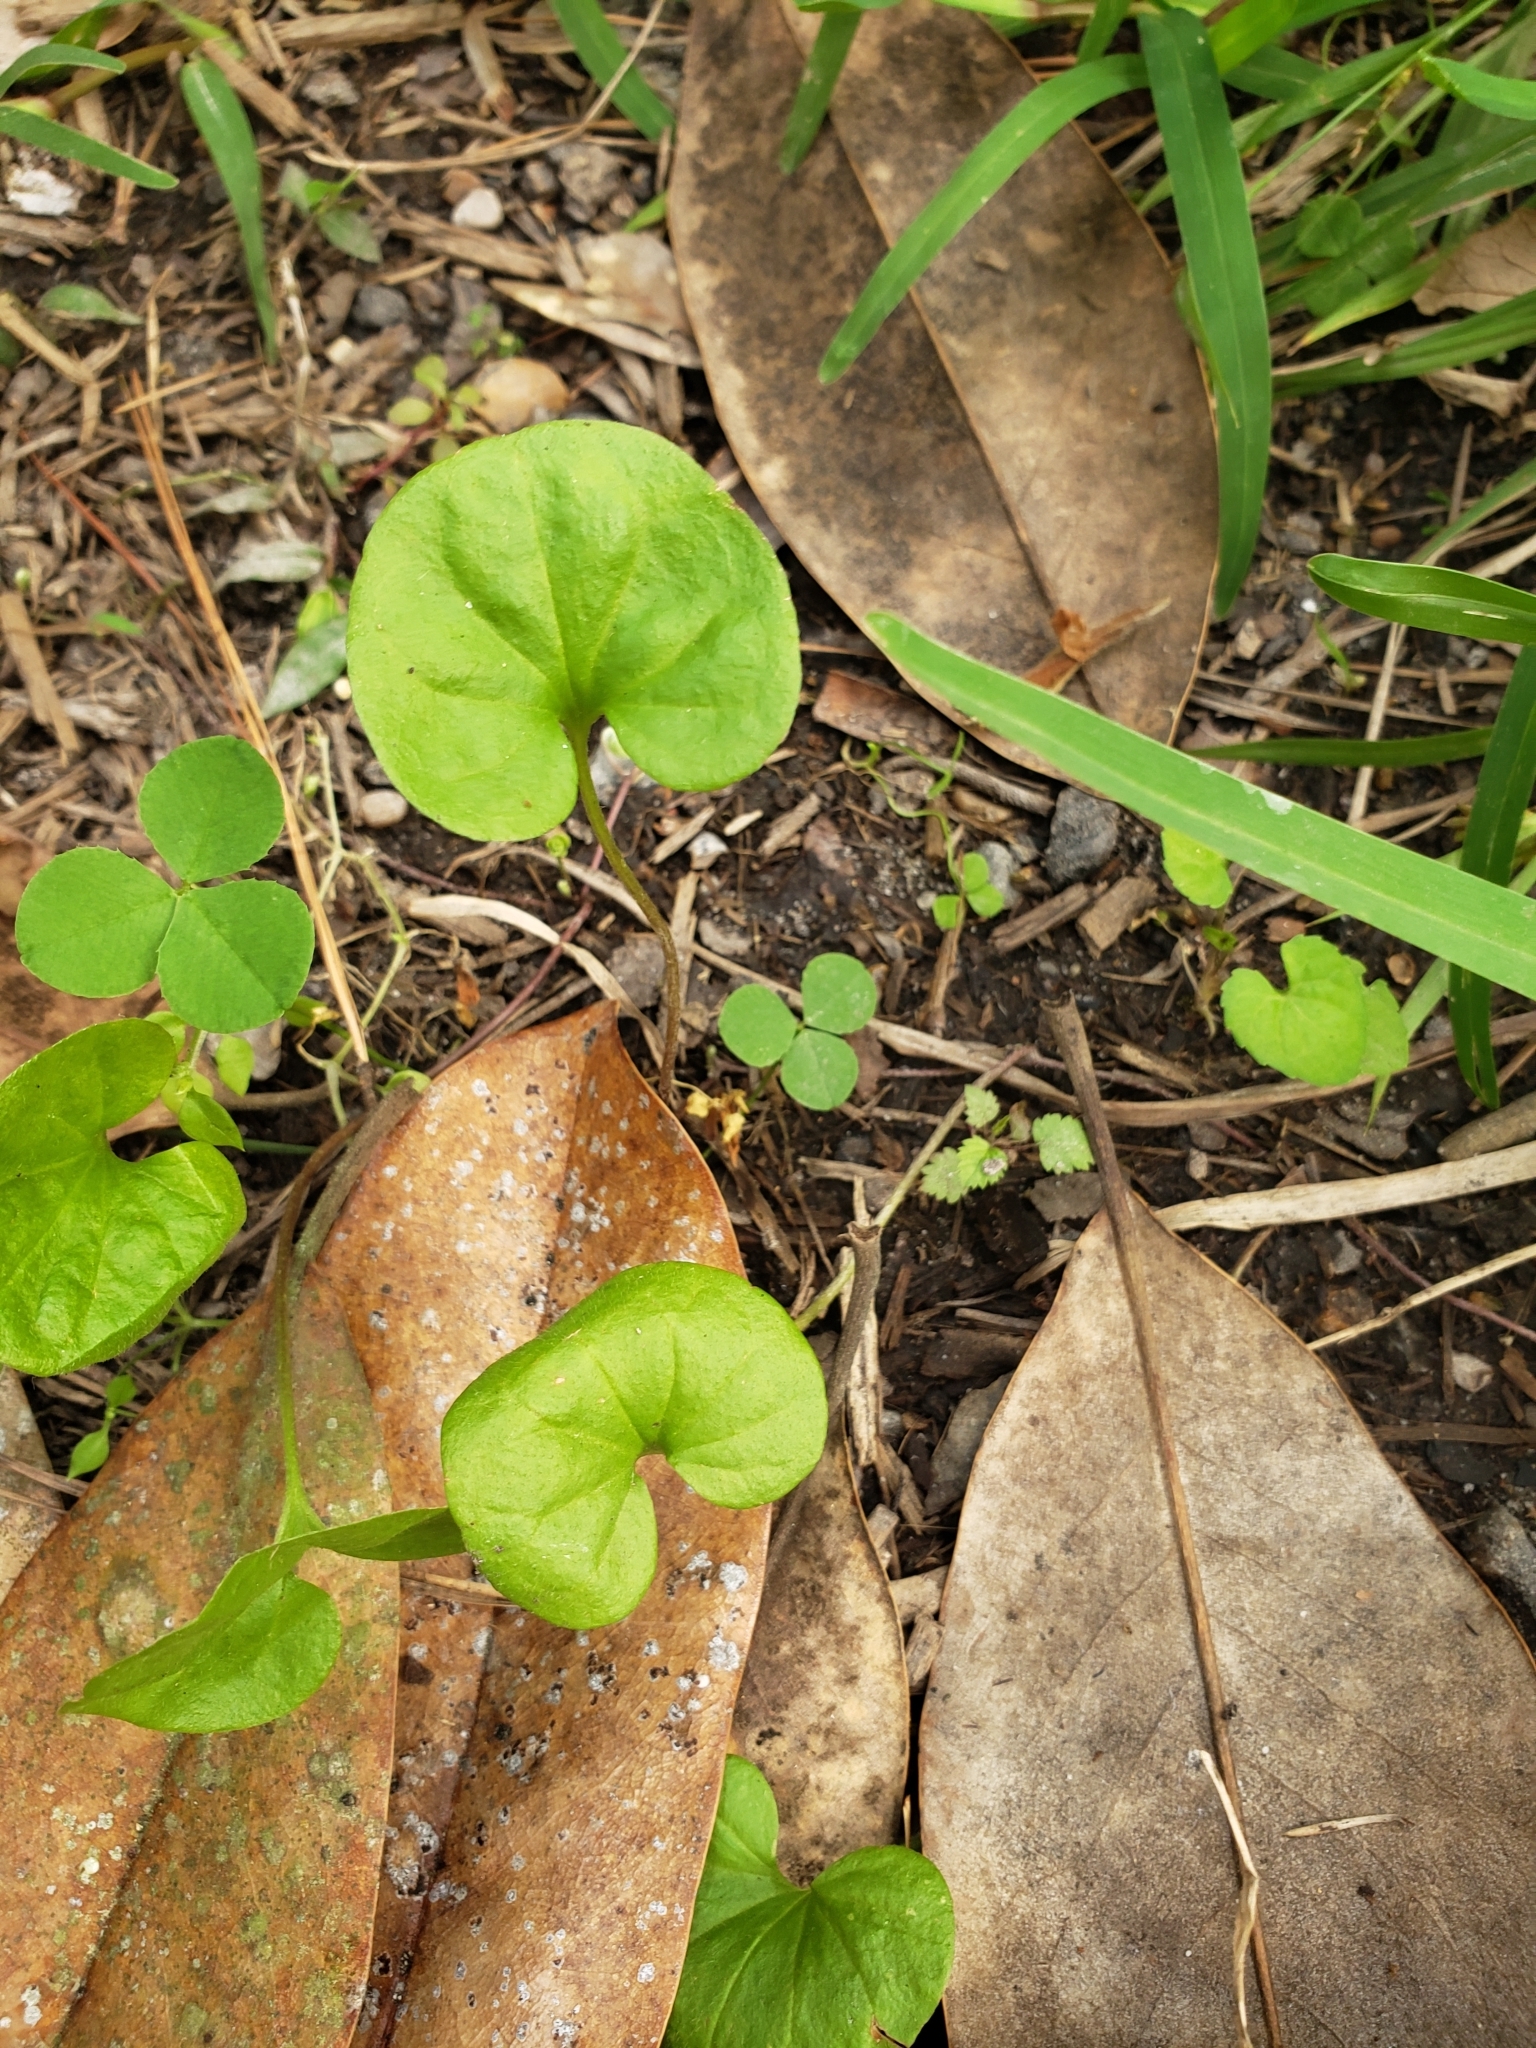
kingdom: Plantae
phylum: Tracheophyta
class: Magnoliopsida
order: Solanales
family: Convolvulaceae
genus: Dichondra
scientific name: Dichondra carolinensis
